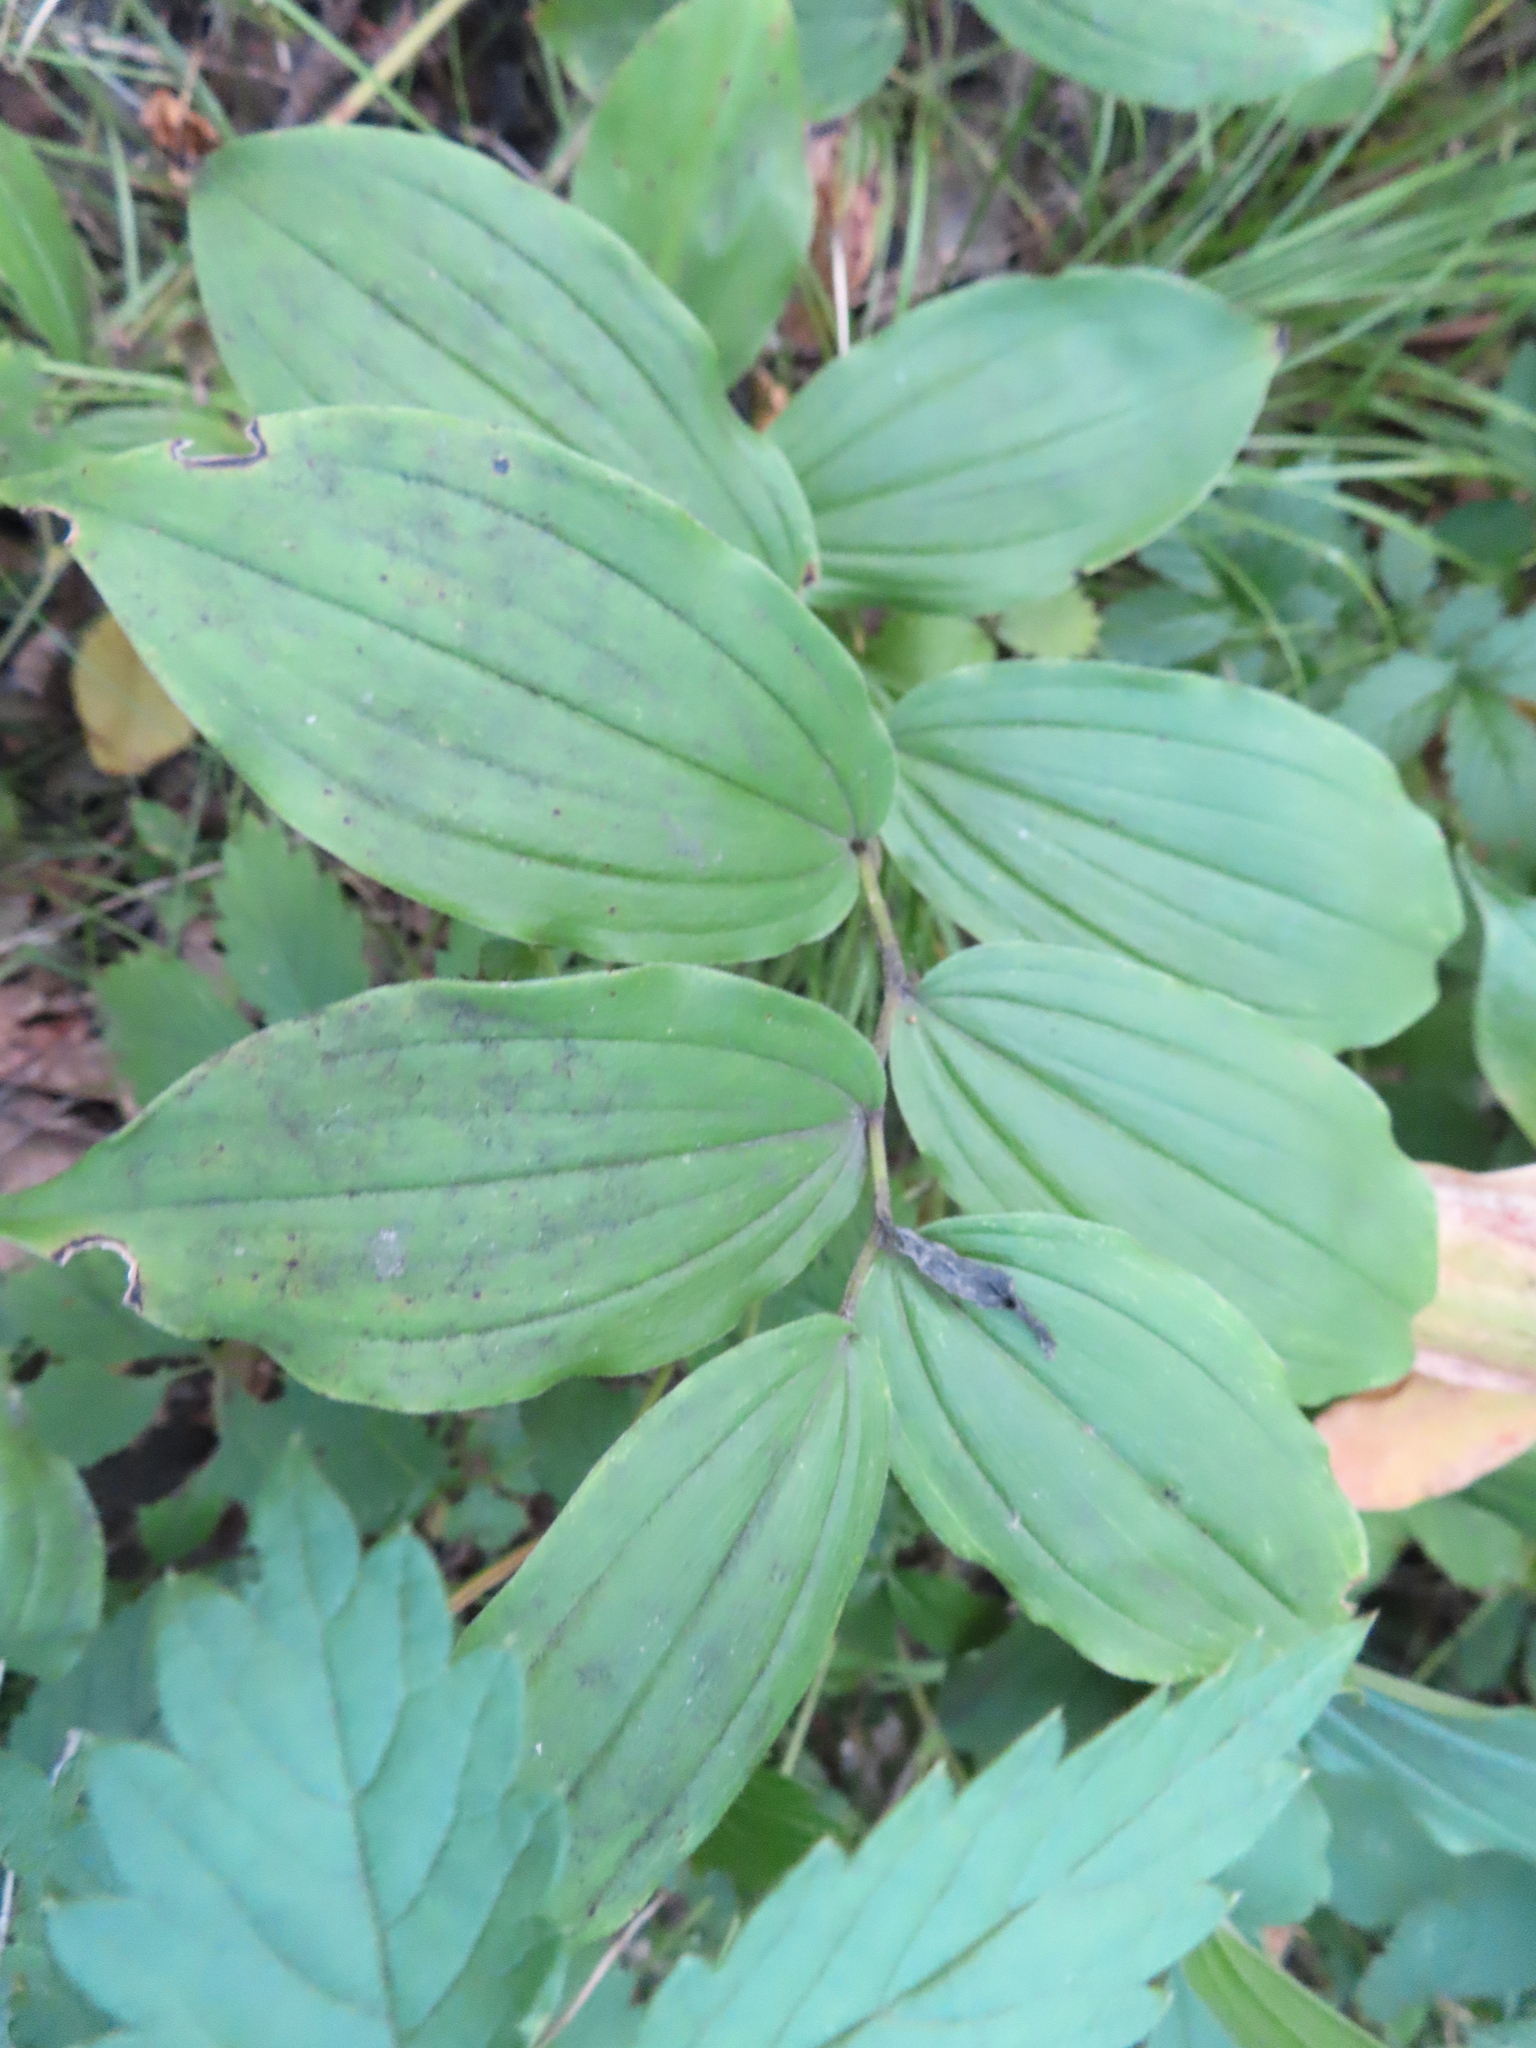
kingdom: Plantae
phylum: Tracheophyta
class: Liliopsida
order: Asparagales
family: Asparagaceae
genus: Maianthemum
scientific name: Maianthemum racemosum
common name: False spikenard
